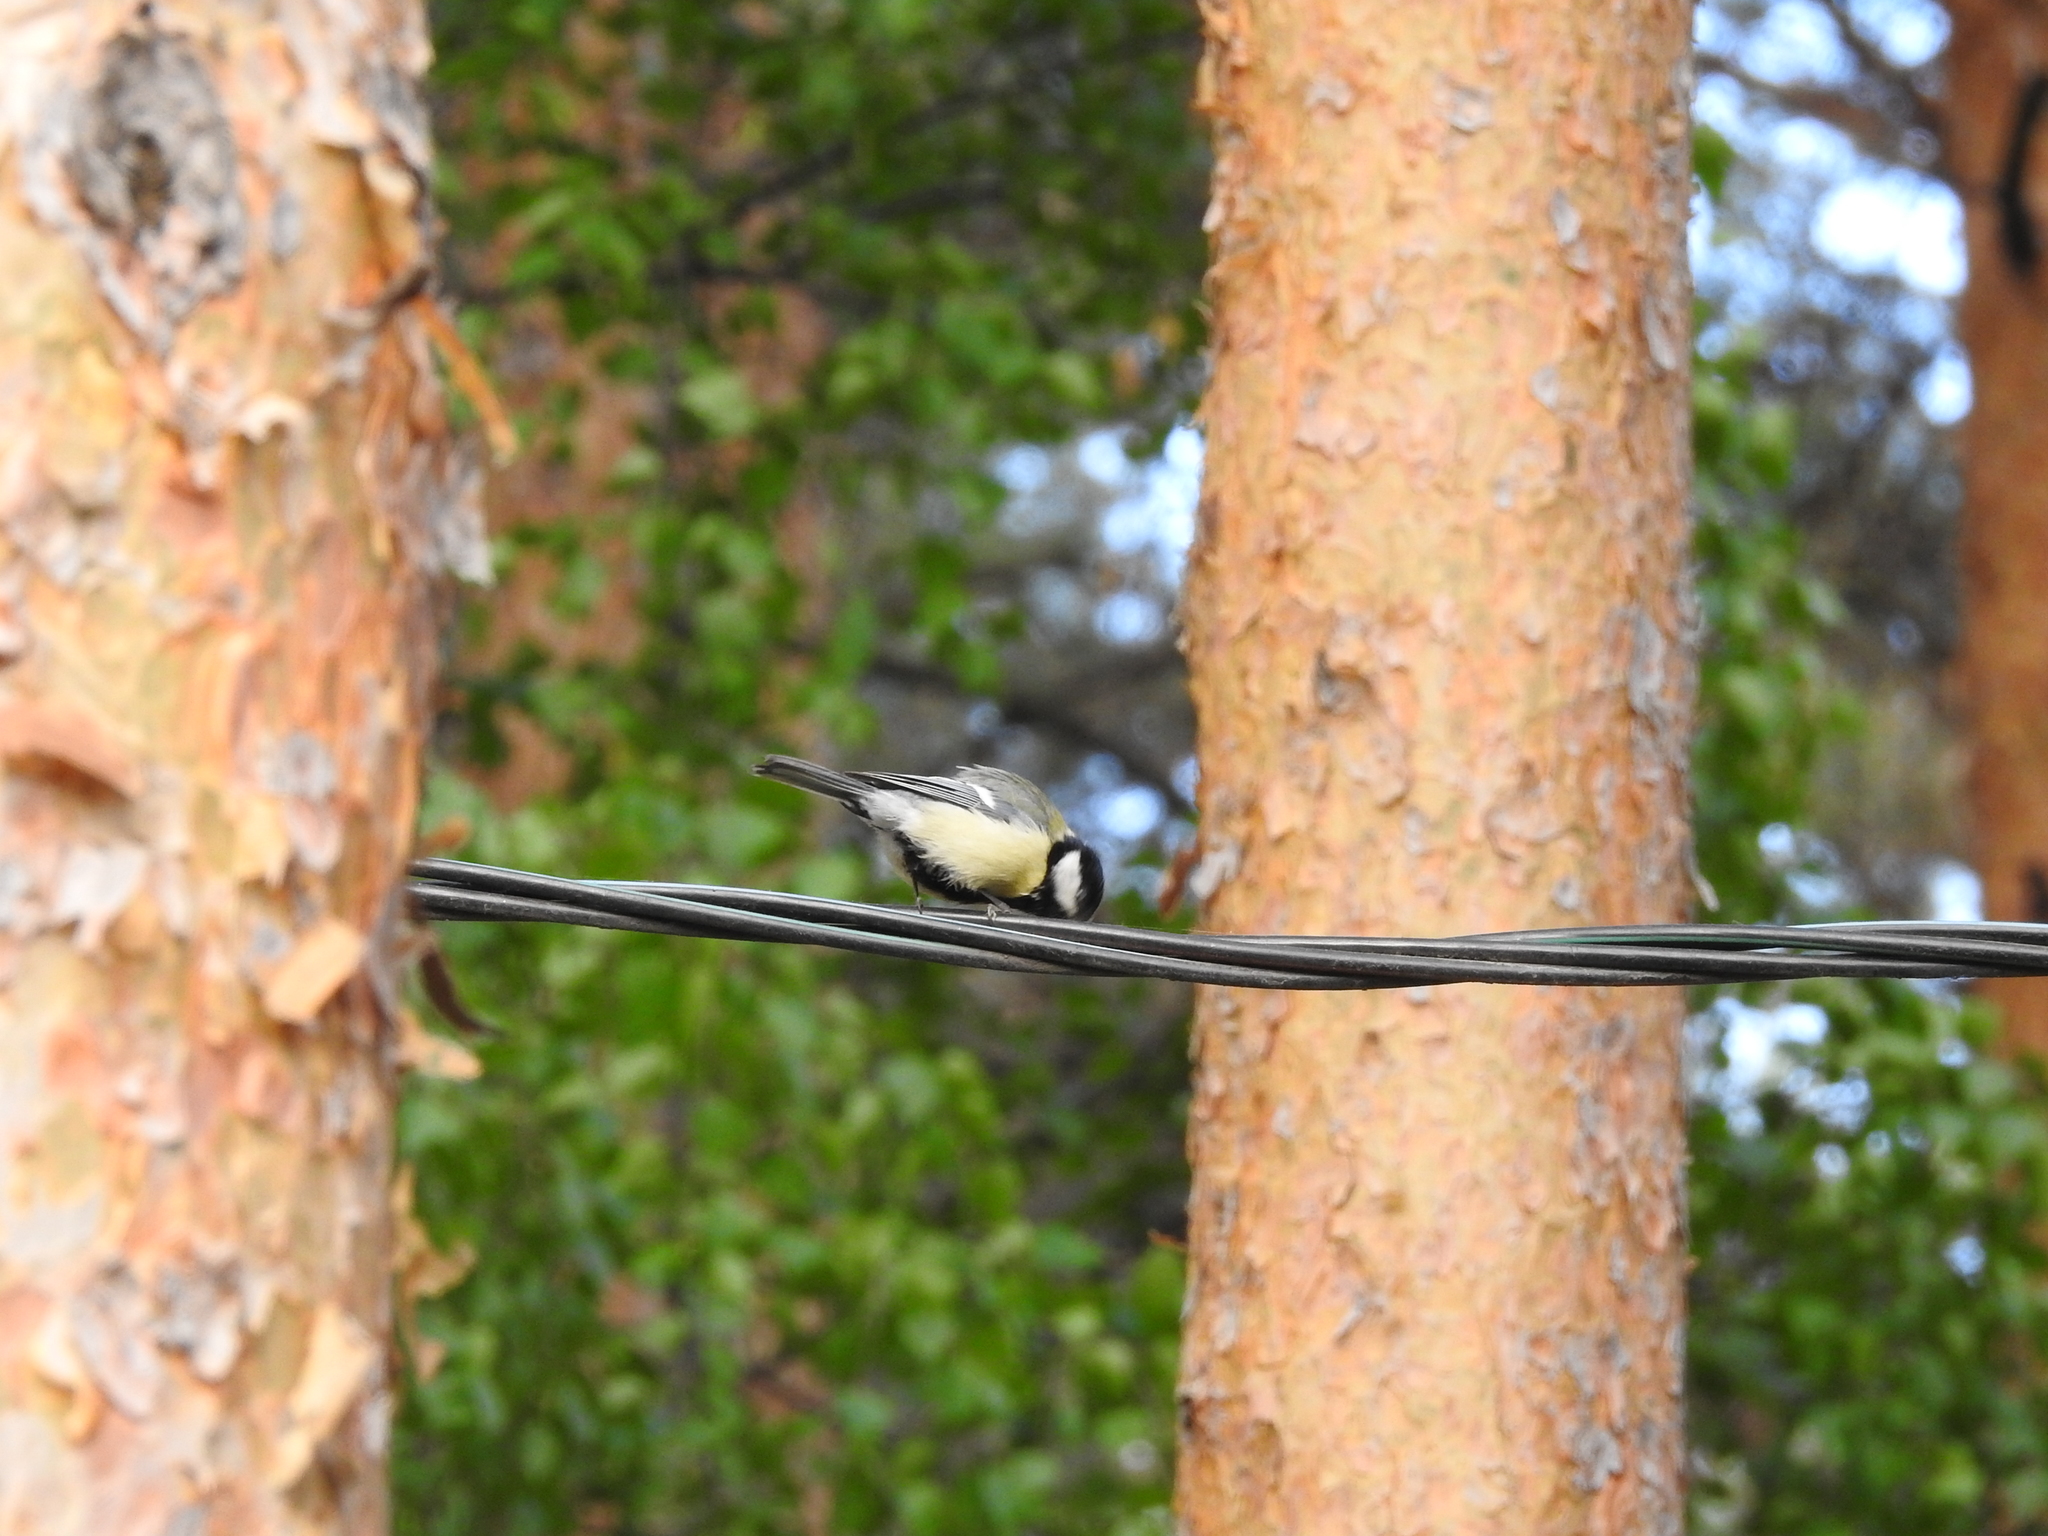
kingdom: Animalia
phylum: Chordata
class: Aves
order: Passeriformes
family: Paridae
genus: Parus
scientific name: Parus major
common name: Great tit
